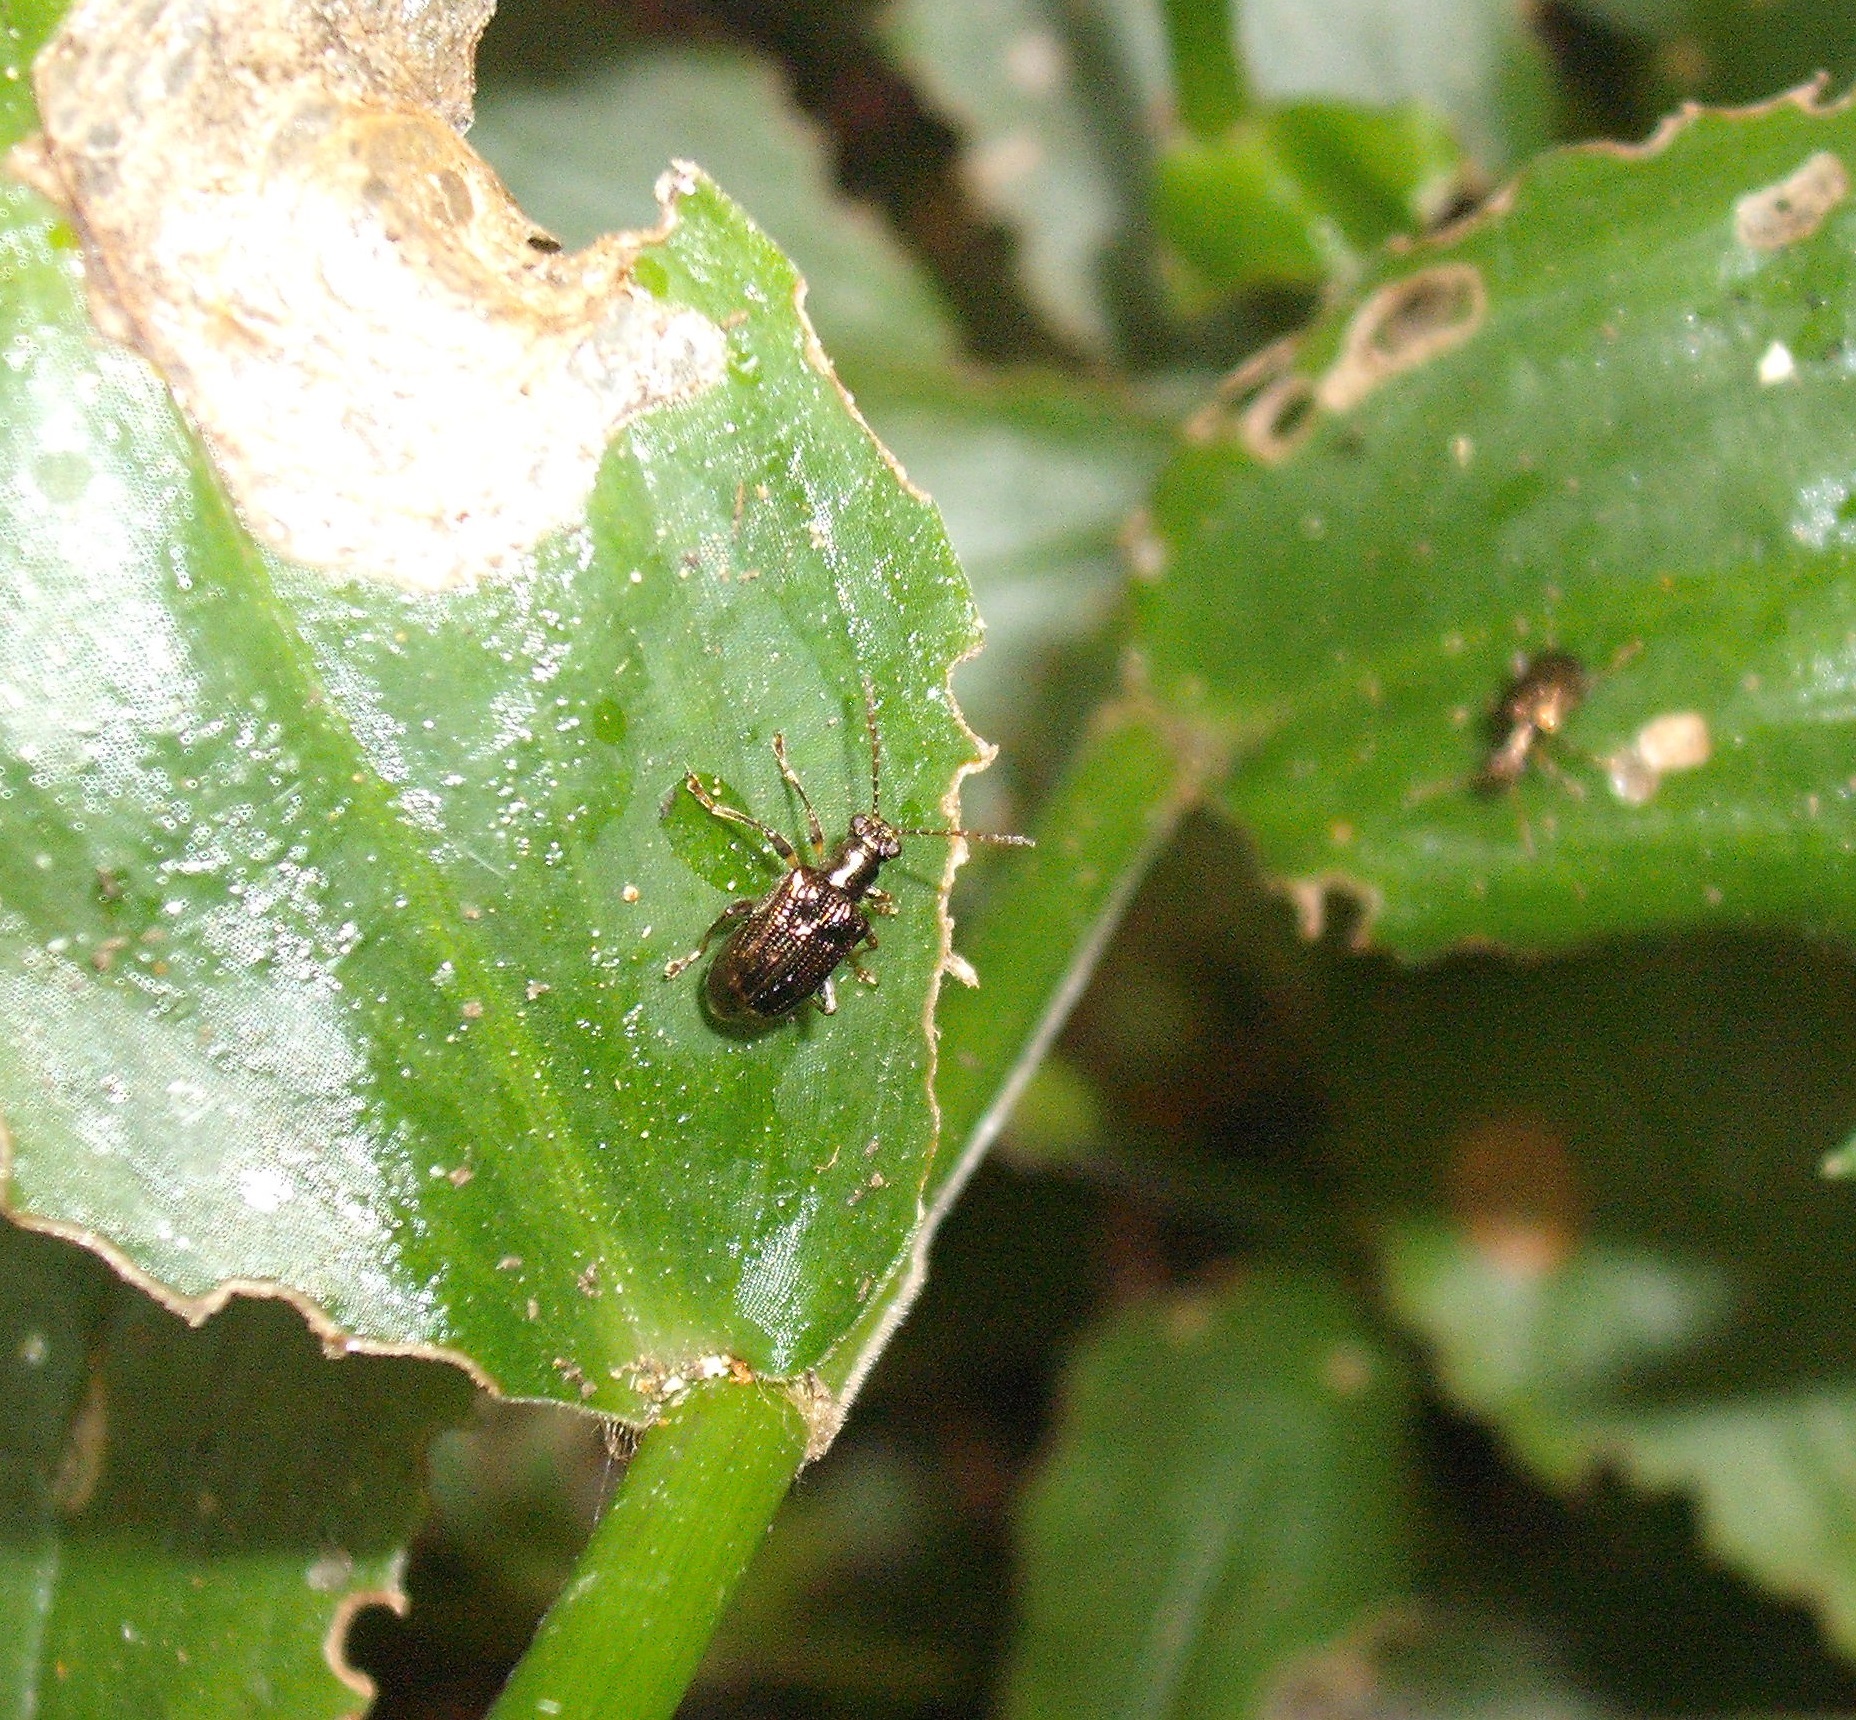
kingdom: Animalia
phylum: Arthropoda
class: Insecta
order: Coleoptera
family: Chrysomelidae
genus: Neolema
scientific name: Neolema ogloblini
